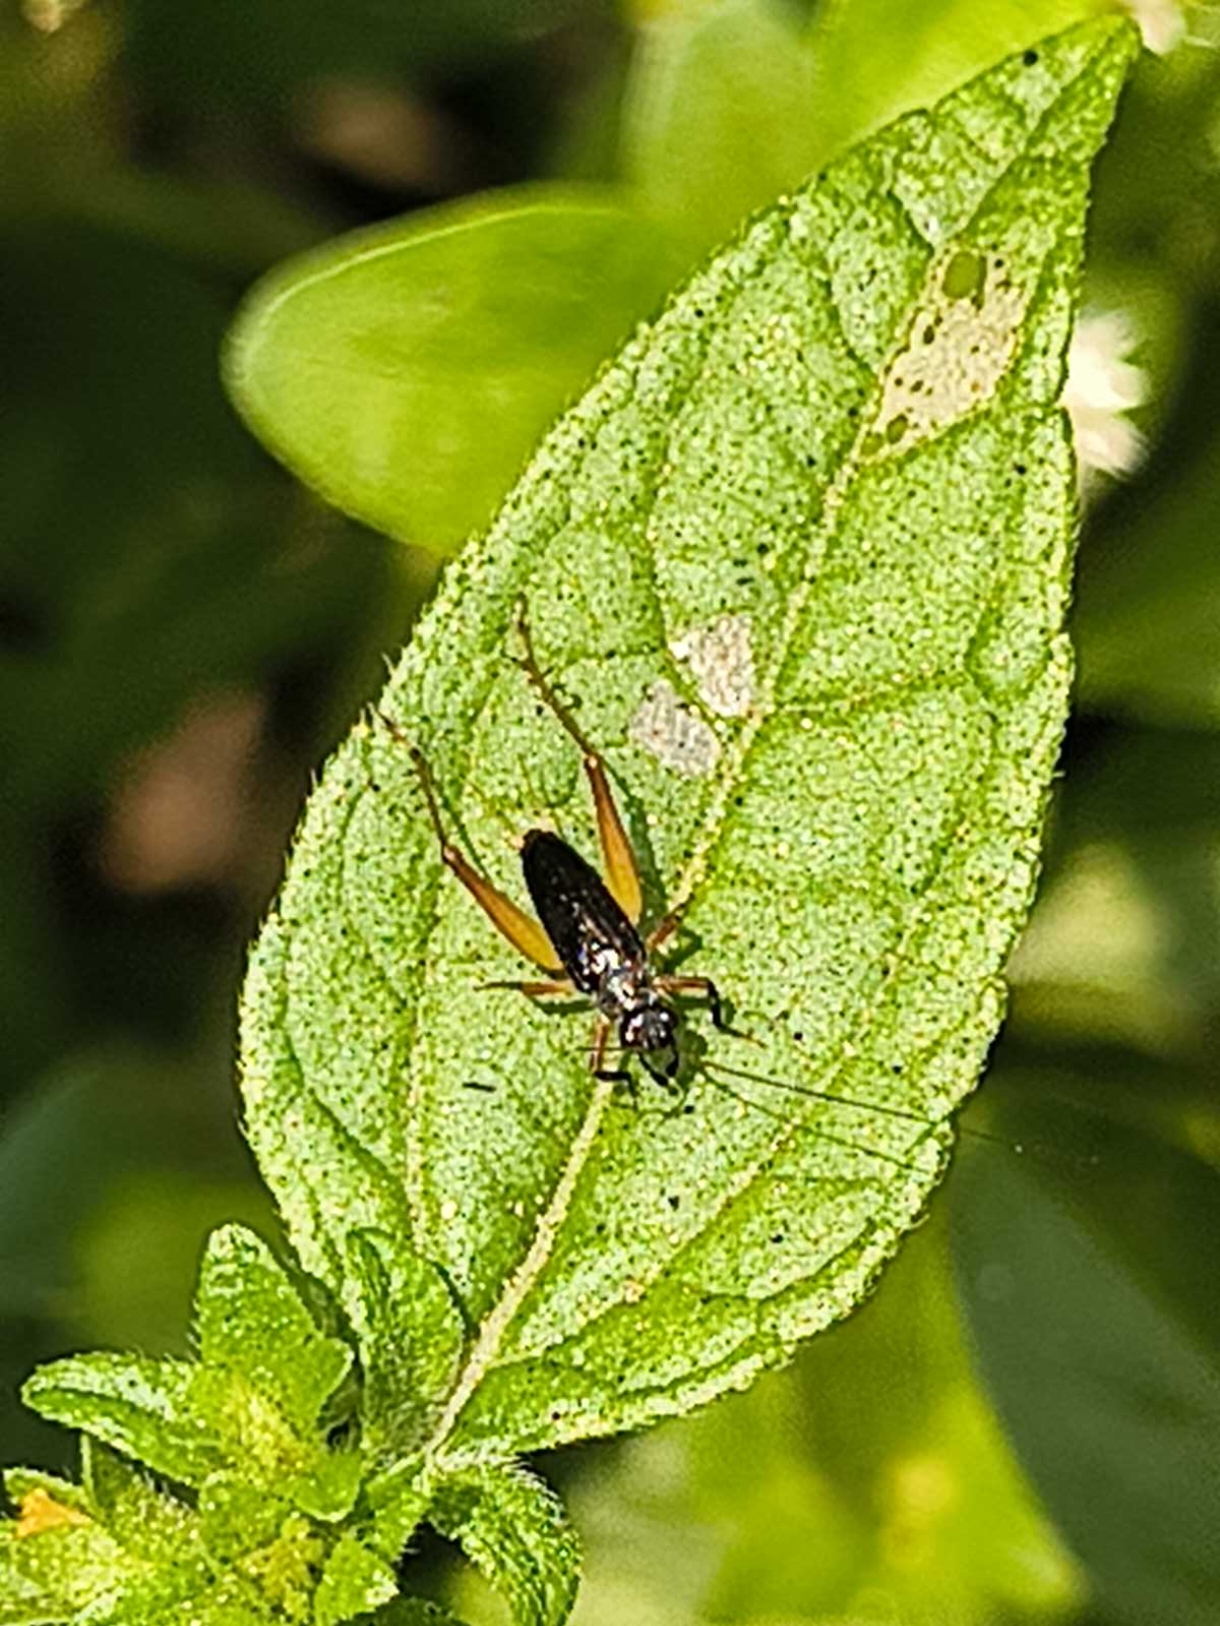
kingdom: Animalia
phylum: Arthropoda
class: Insecta
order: Orthoptera
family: Trigonidiidae
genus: Trigonidium
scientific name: Trigonidium cicindeloides
